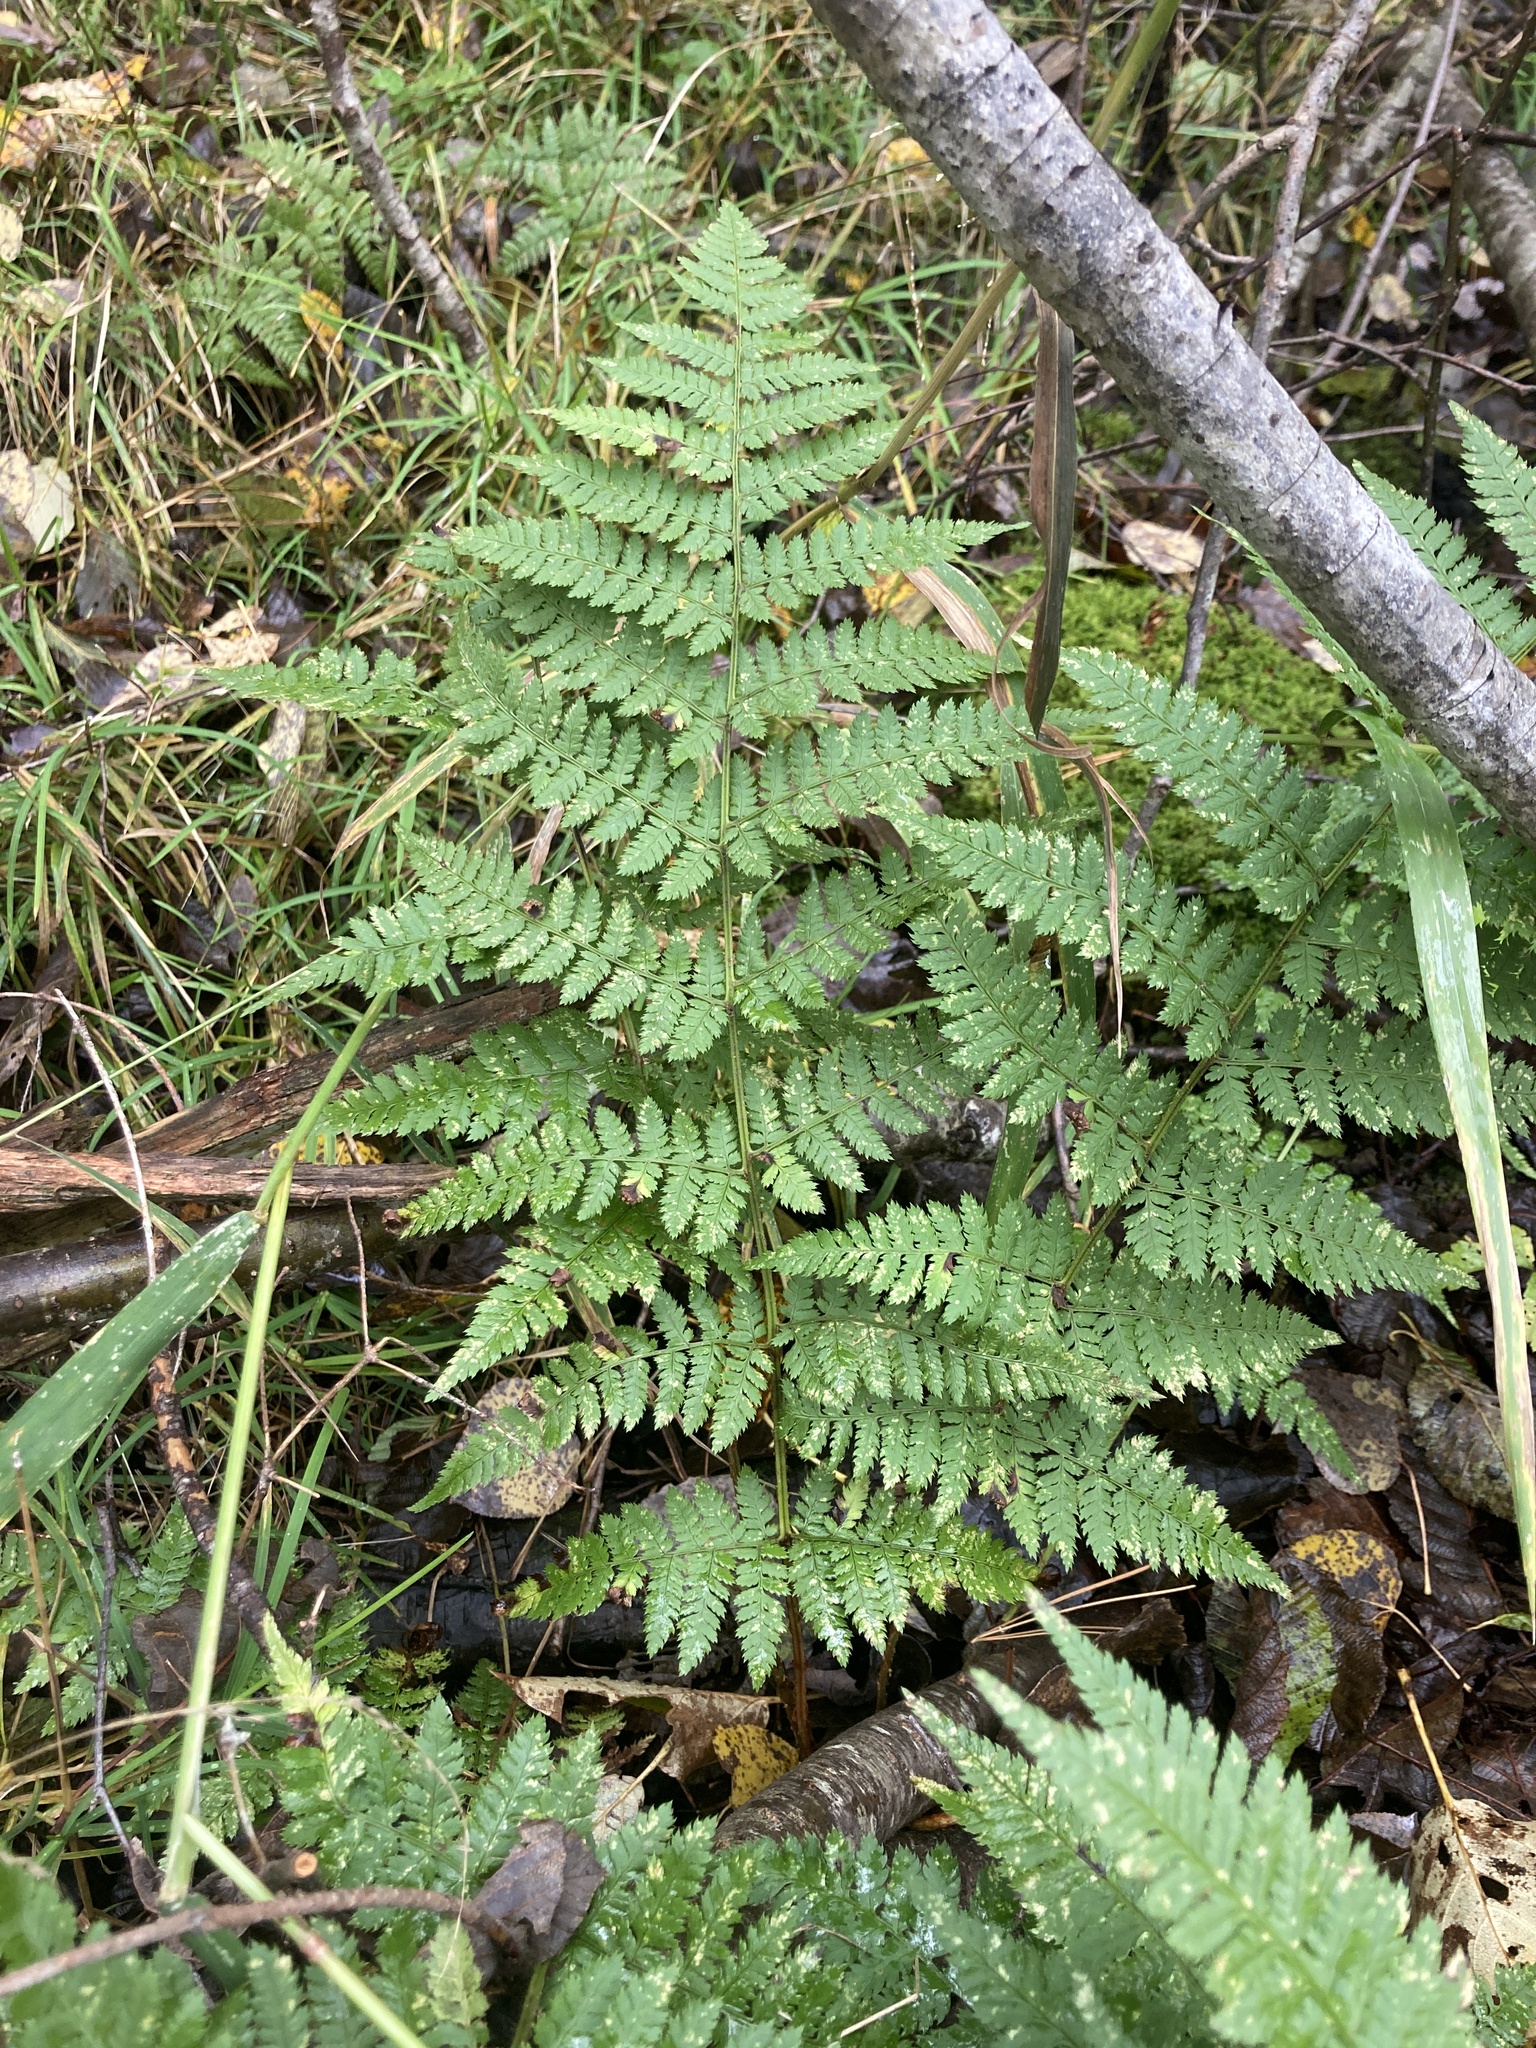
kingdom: Plantae
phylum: Tracheophyta
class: Polypodiopsida
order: Polypodiales
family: Dryopteridaceae
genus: Dryopteris
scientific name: Dryopteris carthusiana
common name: Narrow buckler-fern
